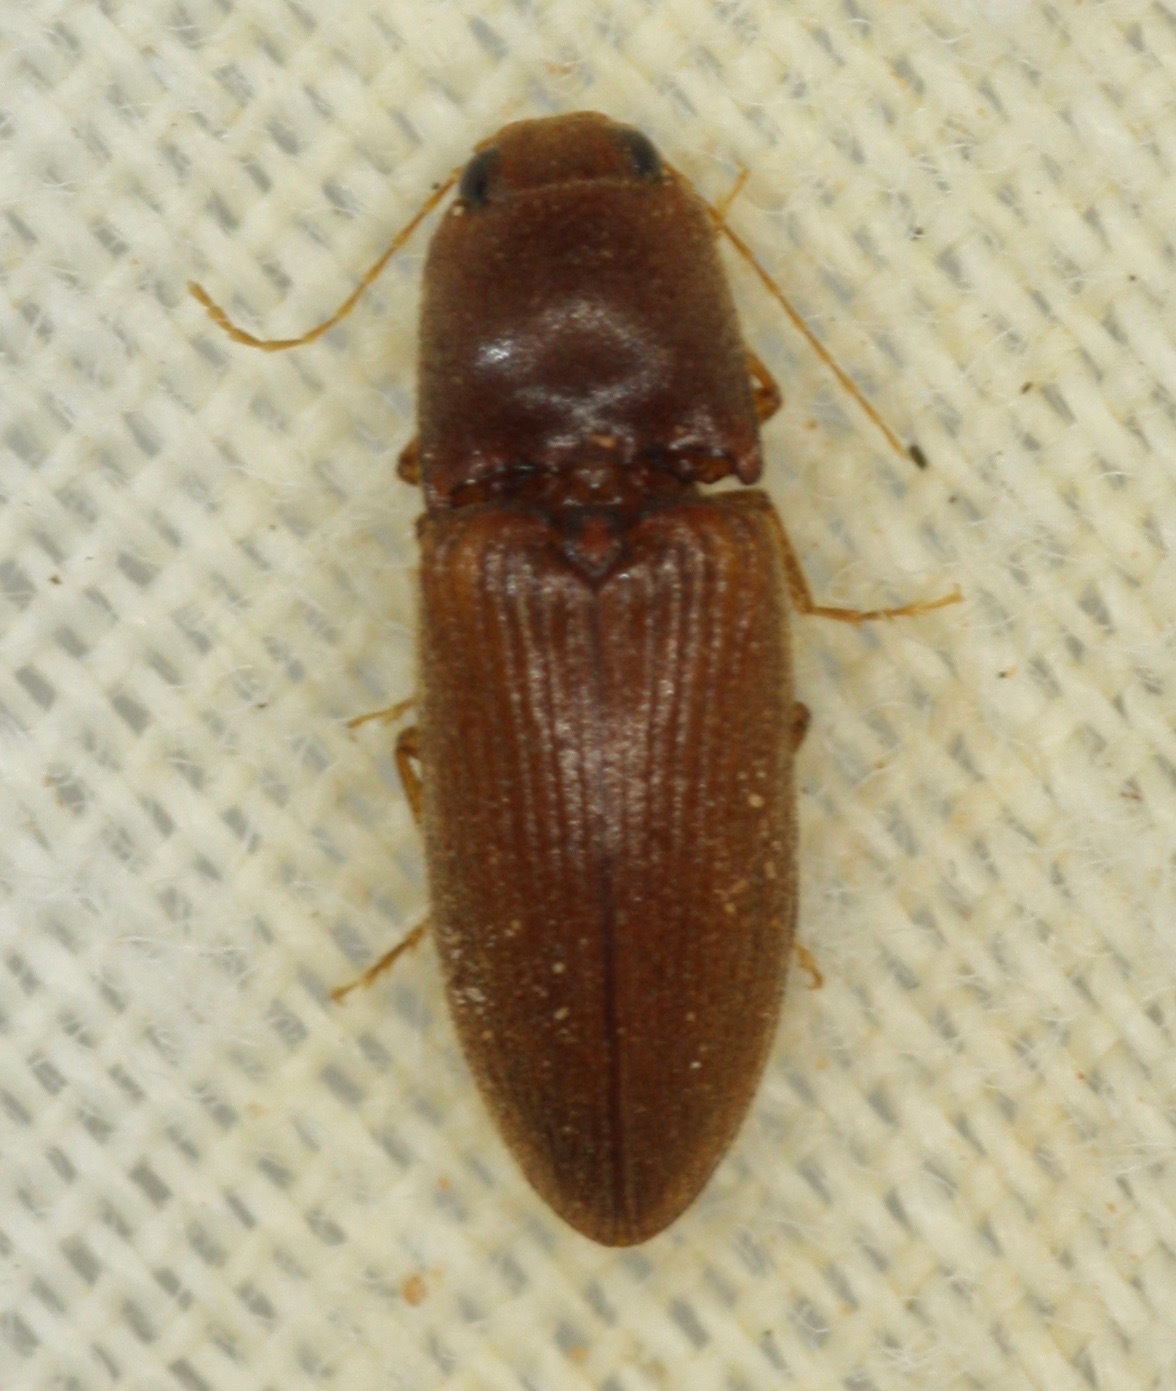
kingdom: Animalia
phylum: Arthropoda
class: Insecta
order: Coleoptera
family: Elateridae
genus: Esthesopus
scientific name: Esthesopus
